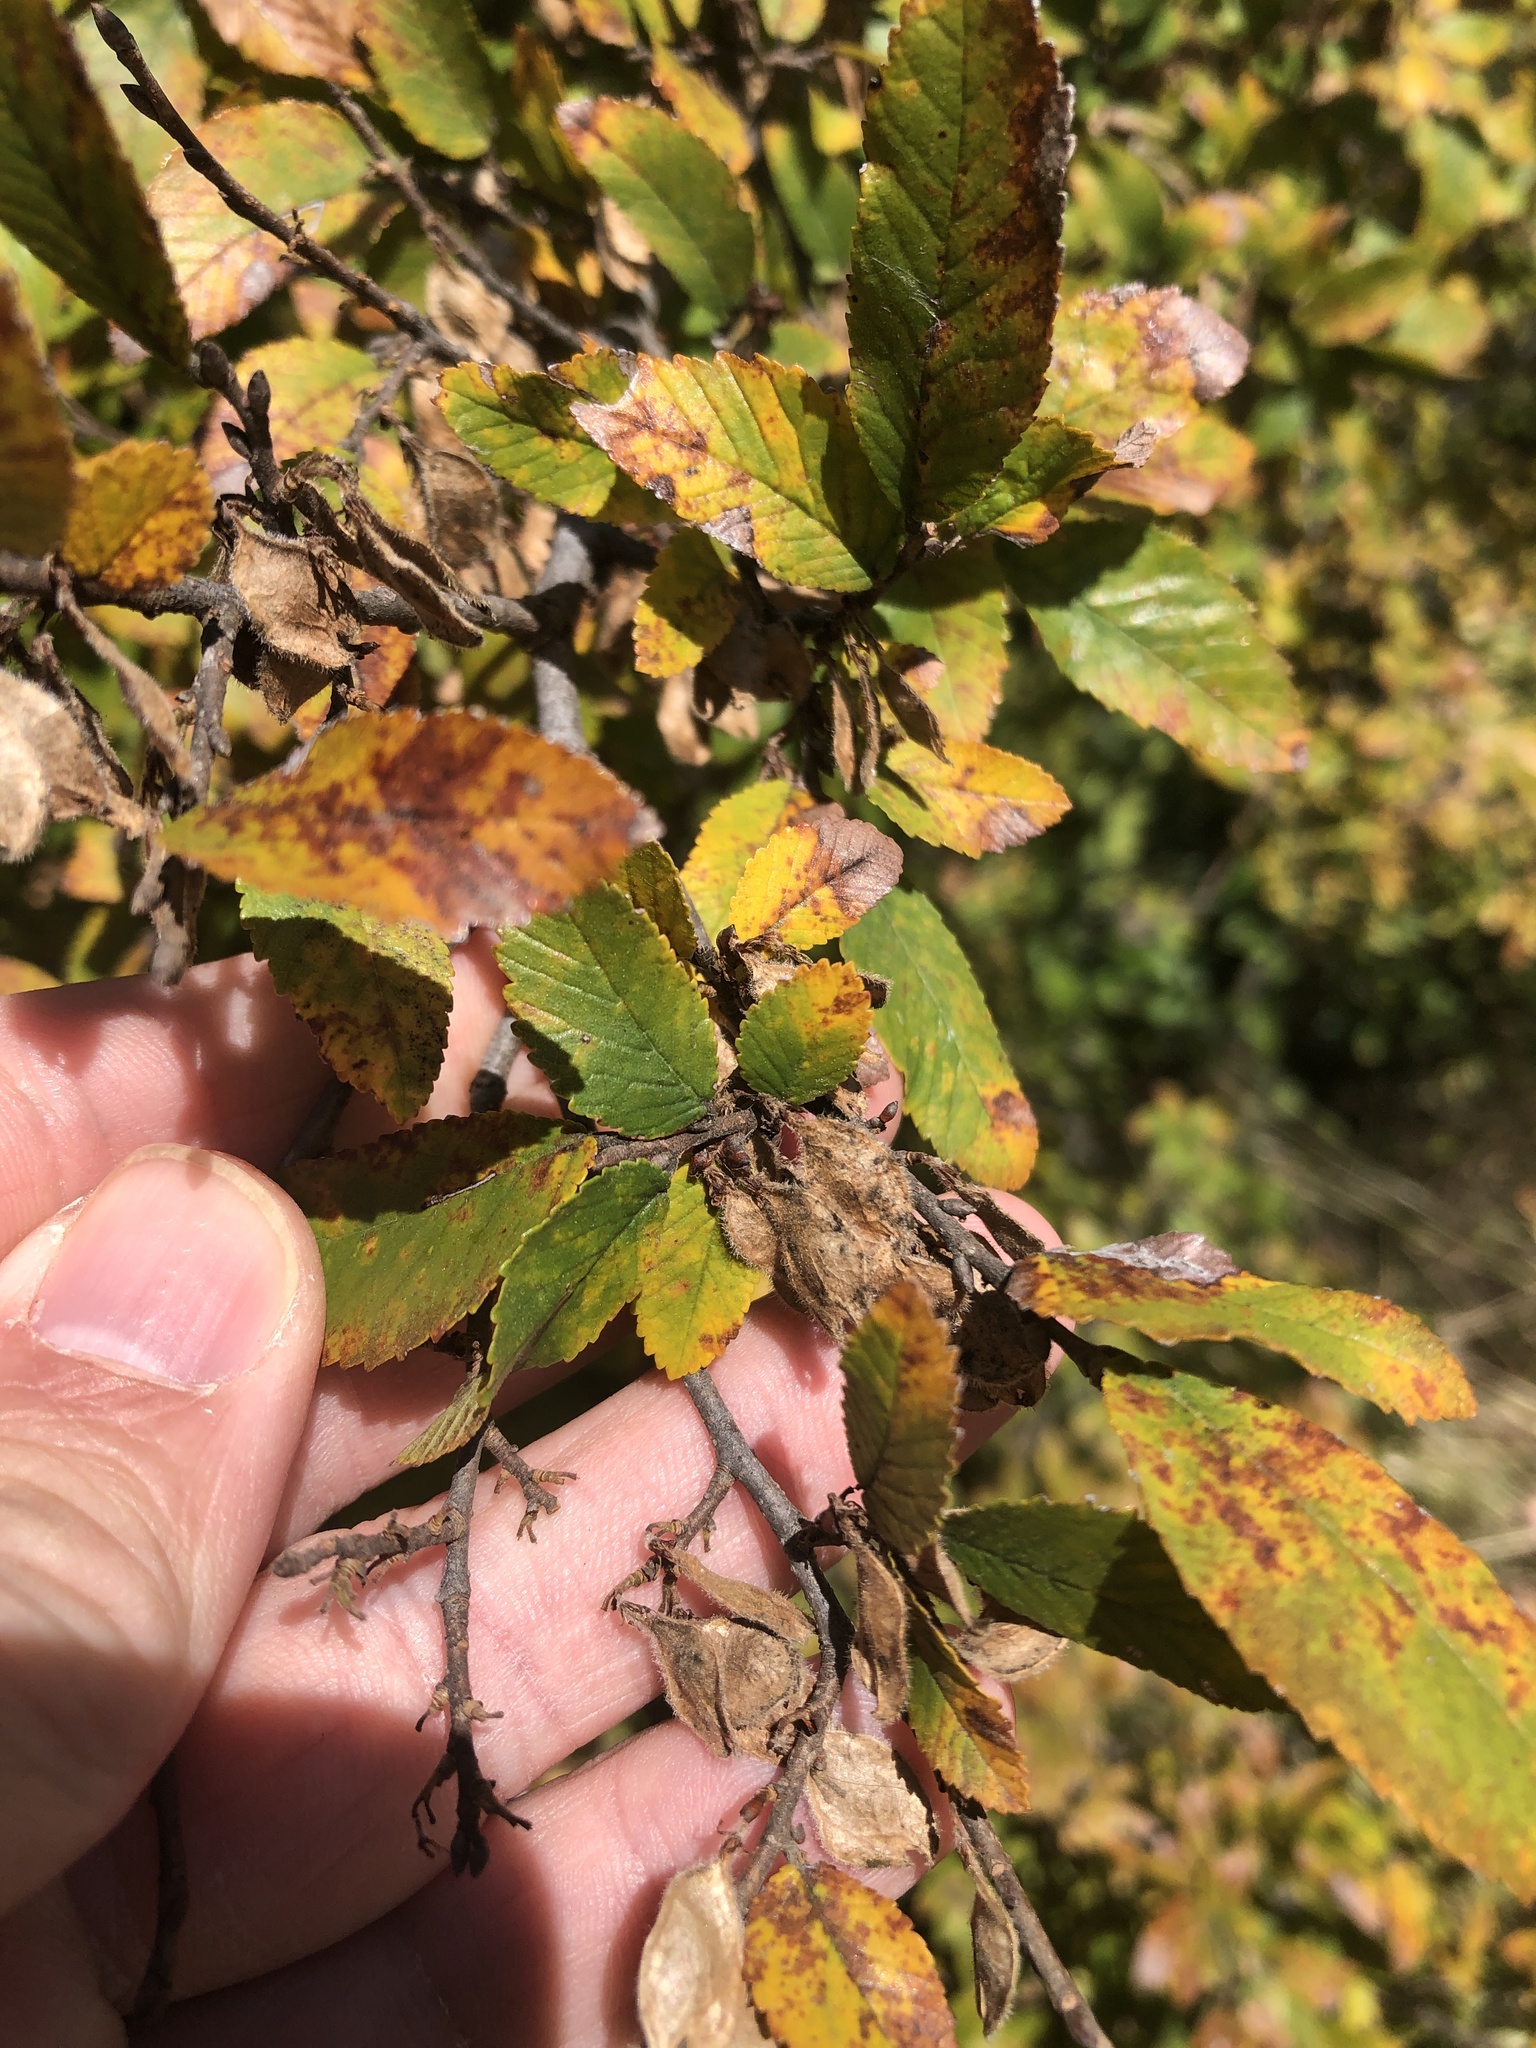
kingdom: Plantae
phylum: Tracheophyta
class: Magnoliopsida
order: Rosales
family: Ulmaceae
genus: Ulmus
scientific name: Ulmus crassifolia
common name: Basket elm
